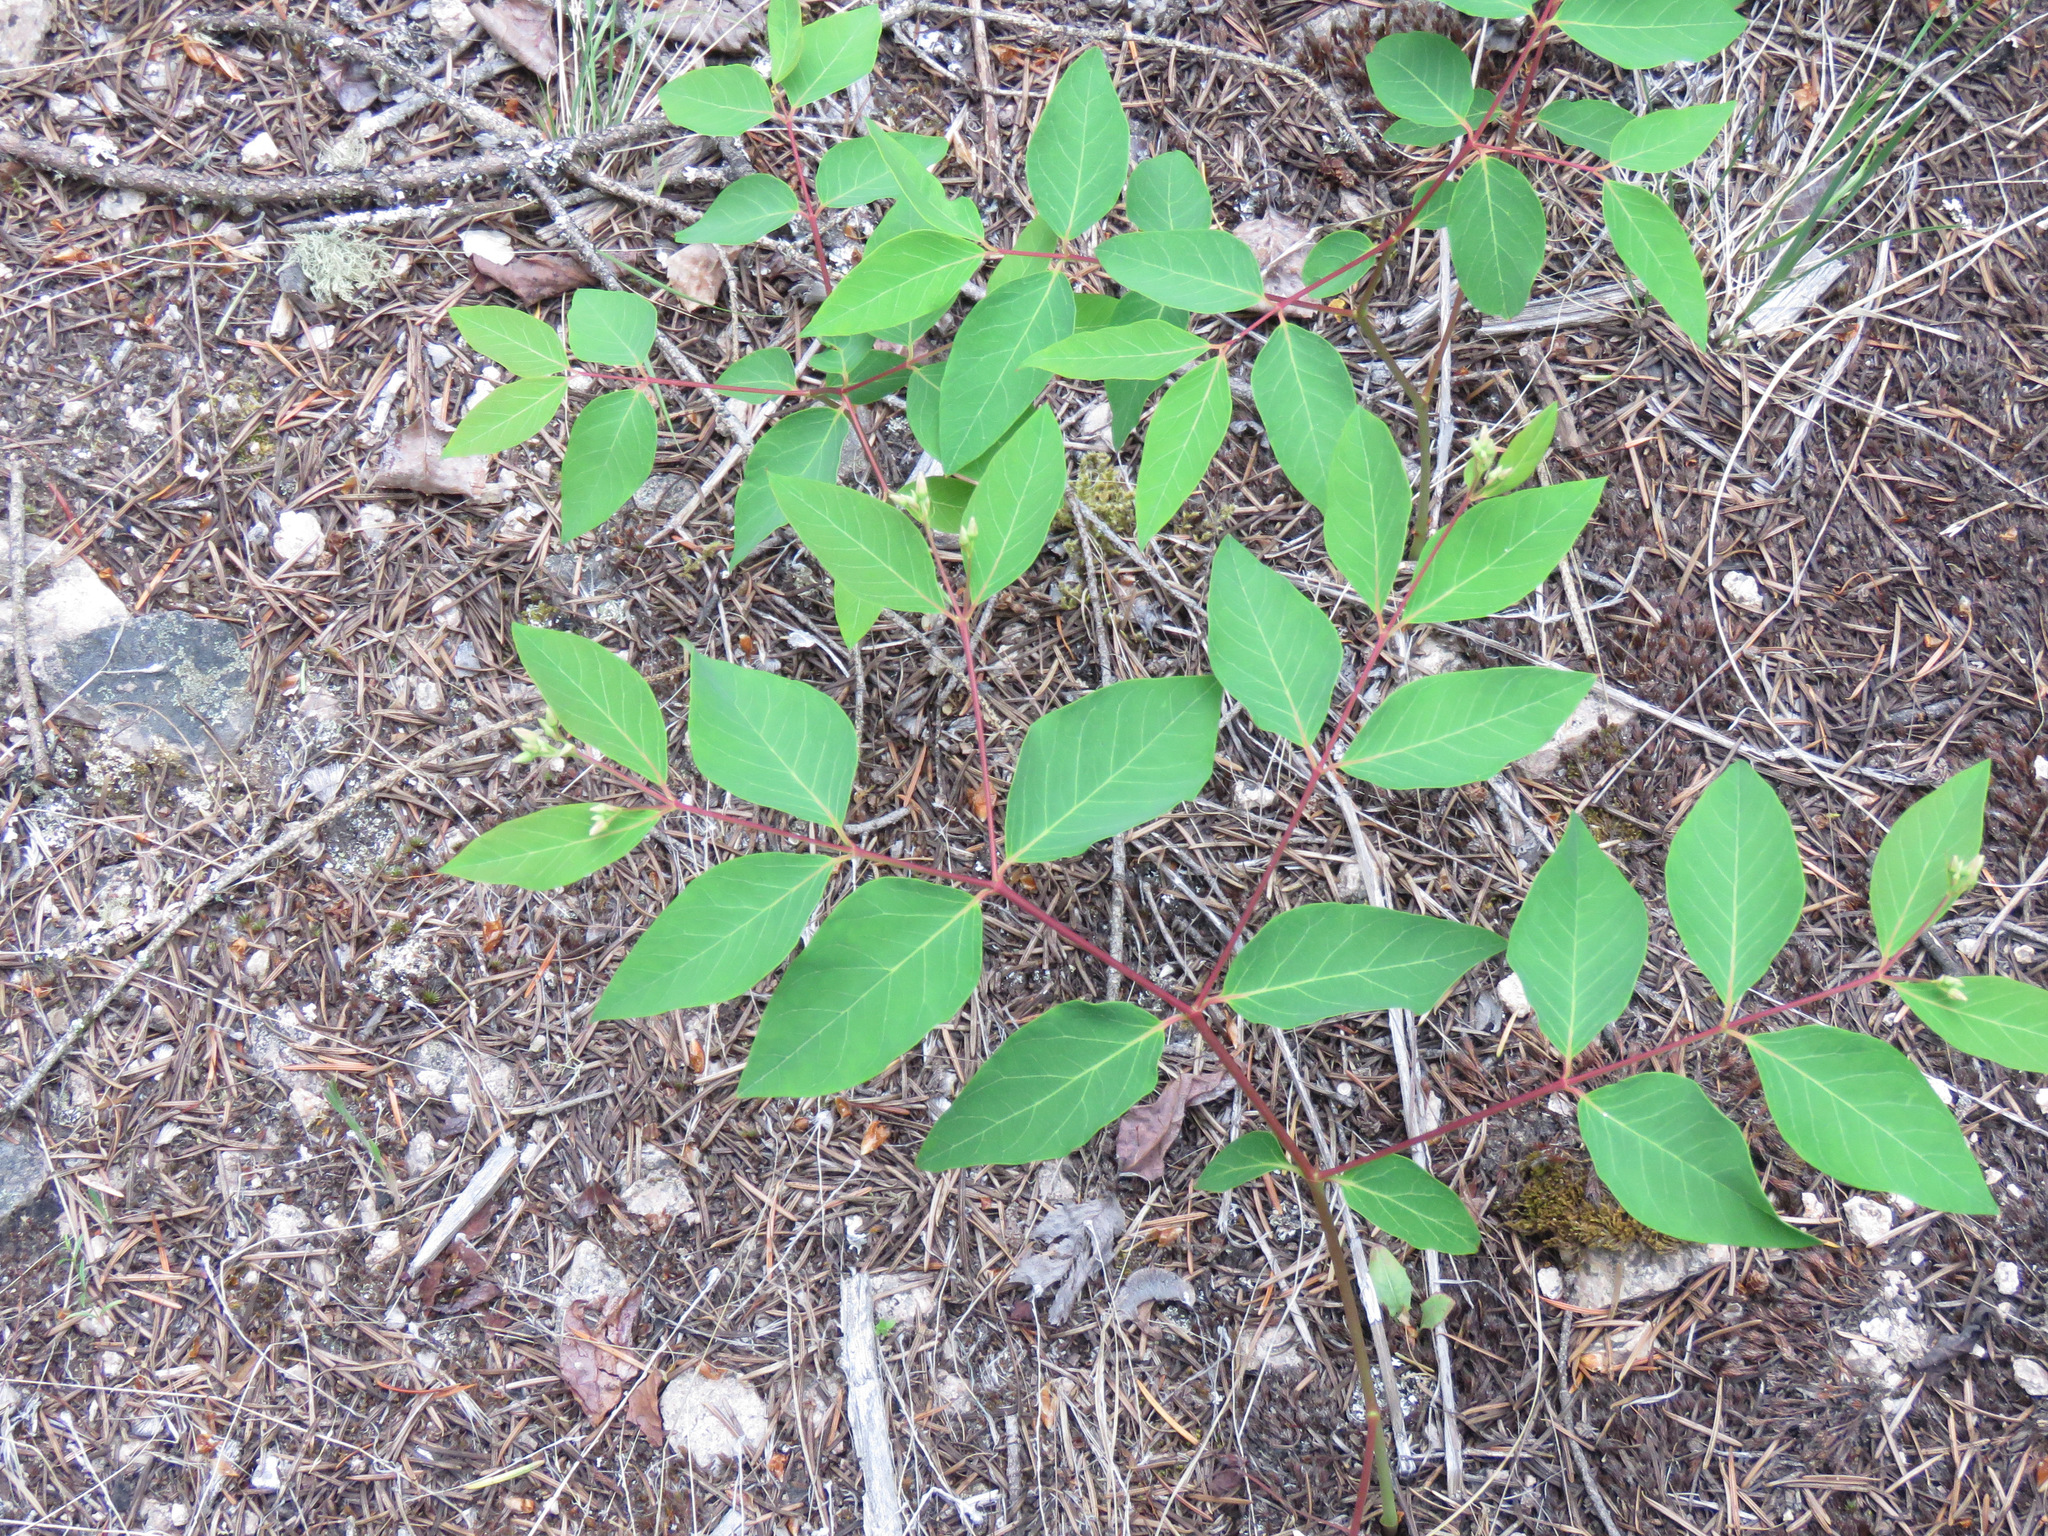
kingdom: Plantae
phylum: Tracheophyta
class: Magnoliopsida
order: Gentianales
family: Apocynaceae
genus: Apocynum
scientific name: Apocynum androsaemifolium
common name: Spreading dogbane
